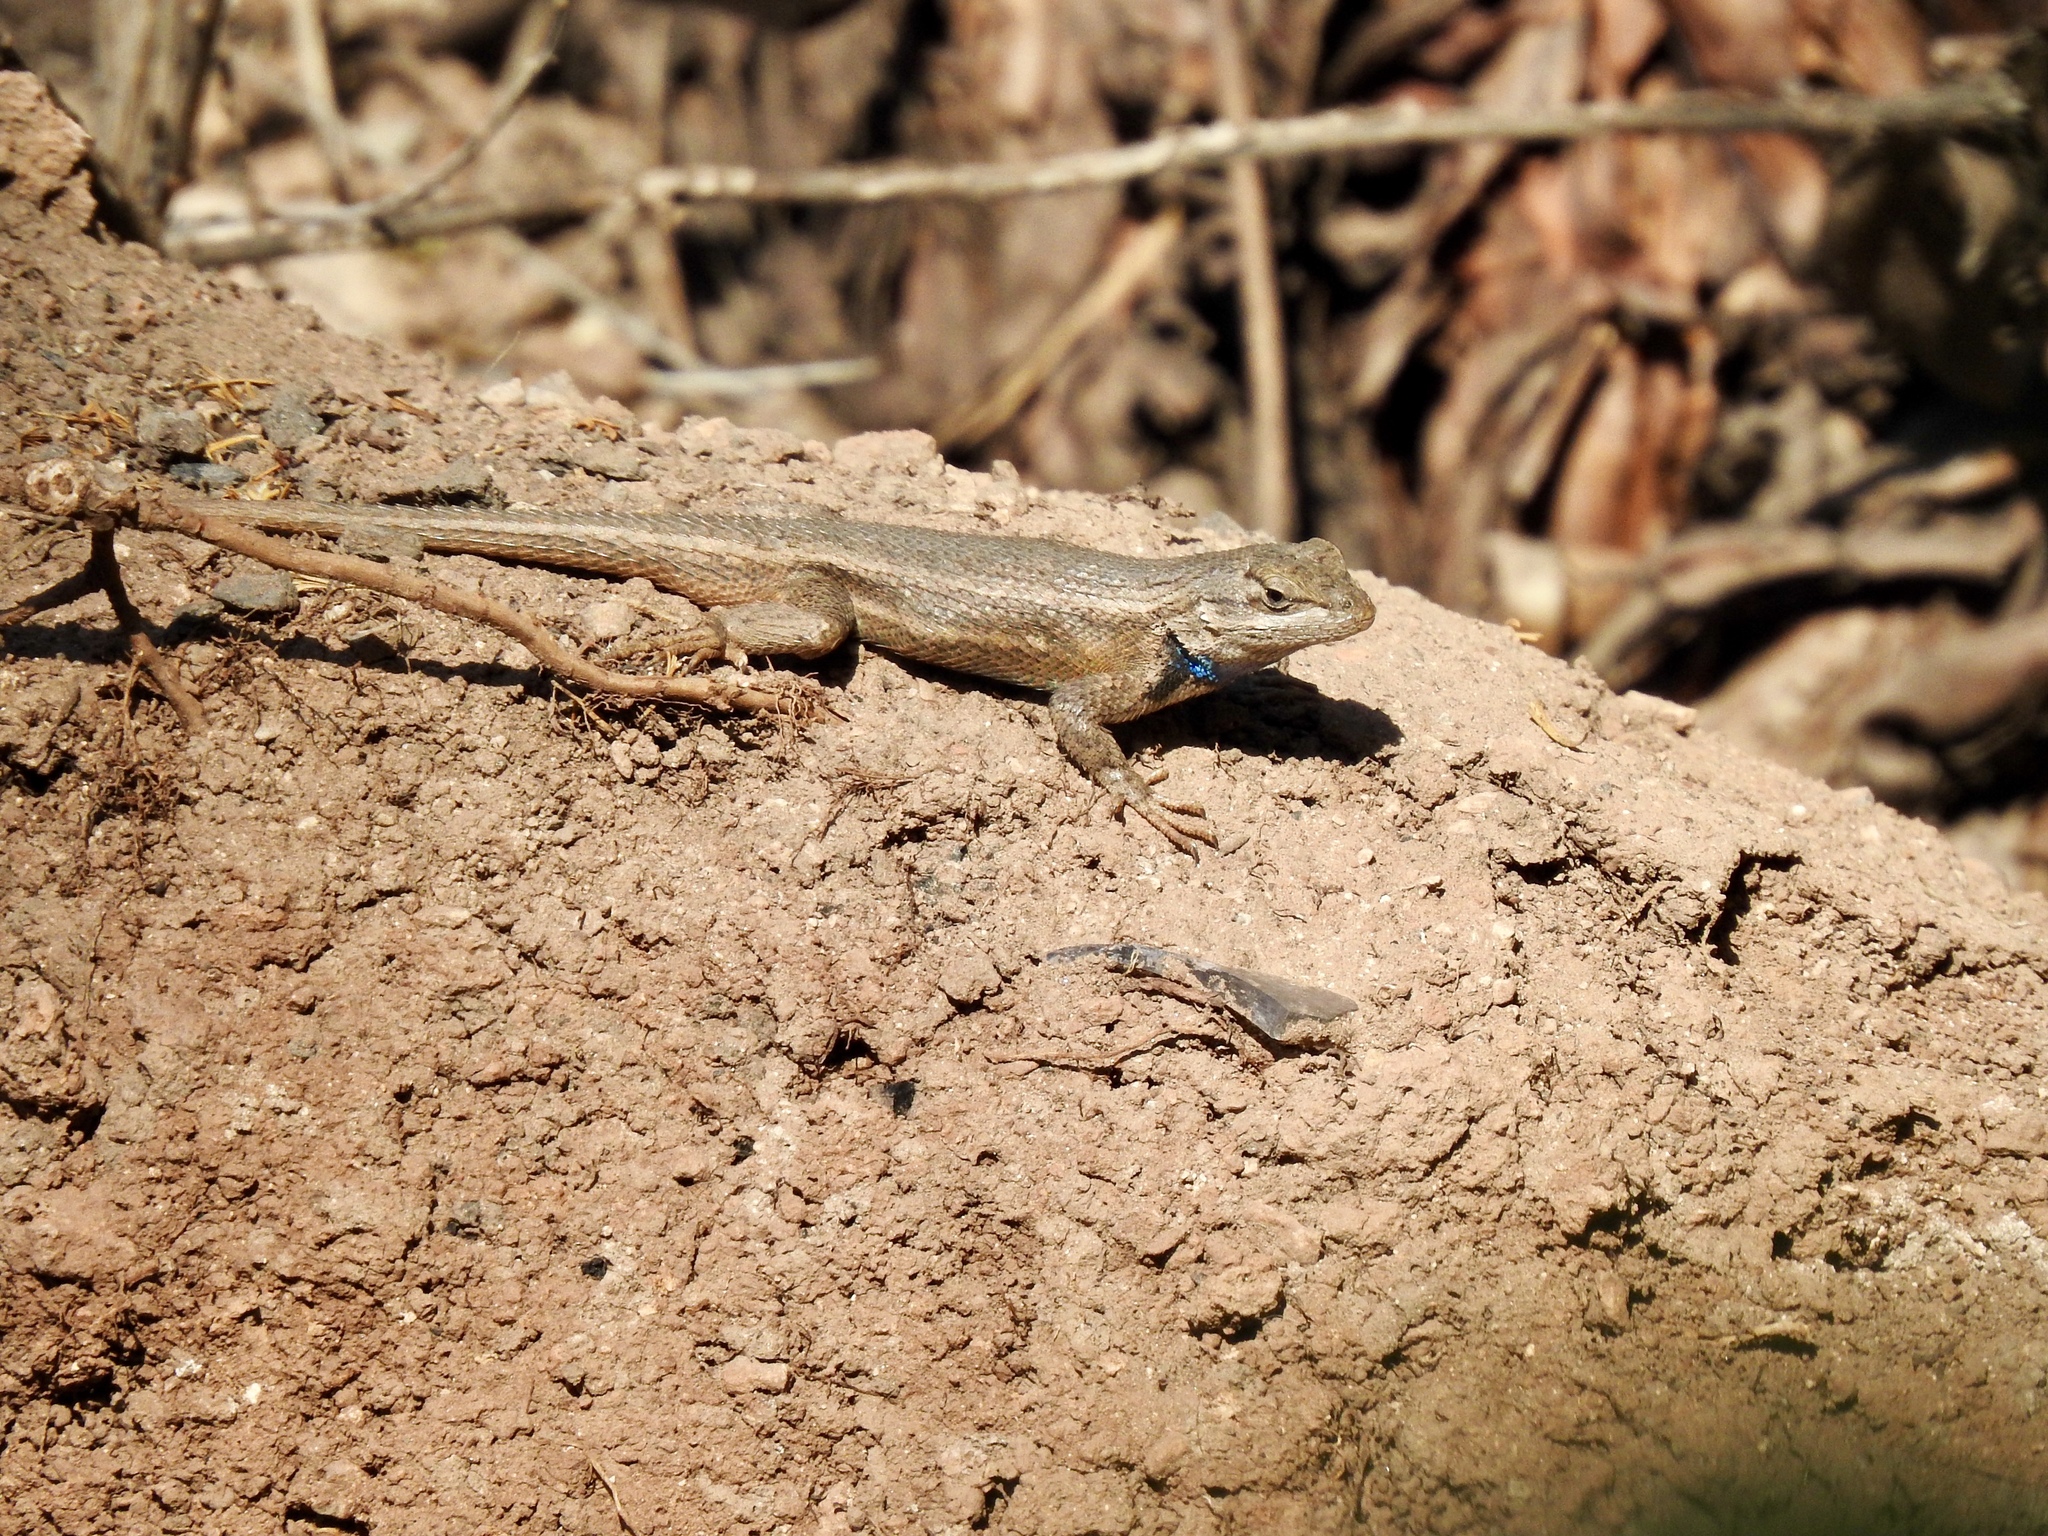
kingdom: Animalia
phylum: Chordata
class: Squamata
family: Phrynosomatidae
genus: Sceloporus
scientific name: Sceloporus cowlesi
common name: White sands prairie lizard
